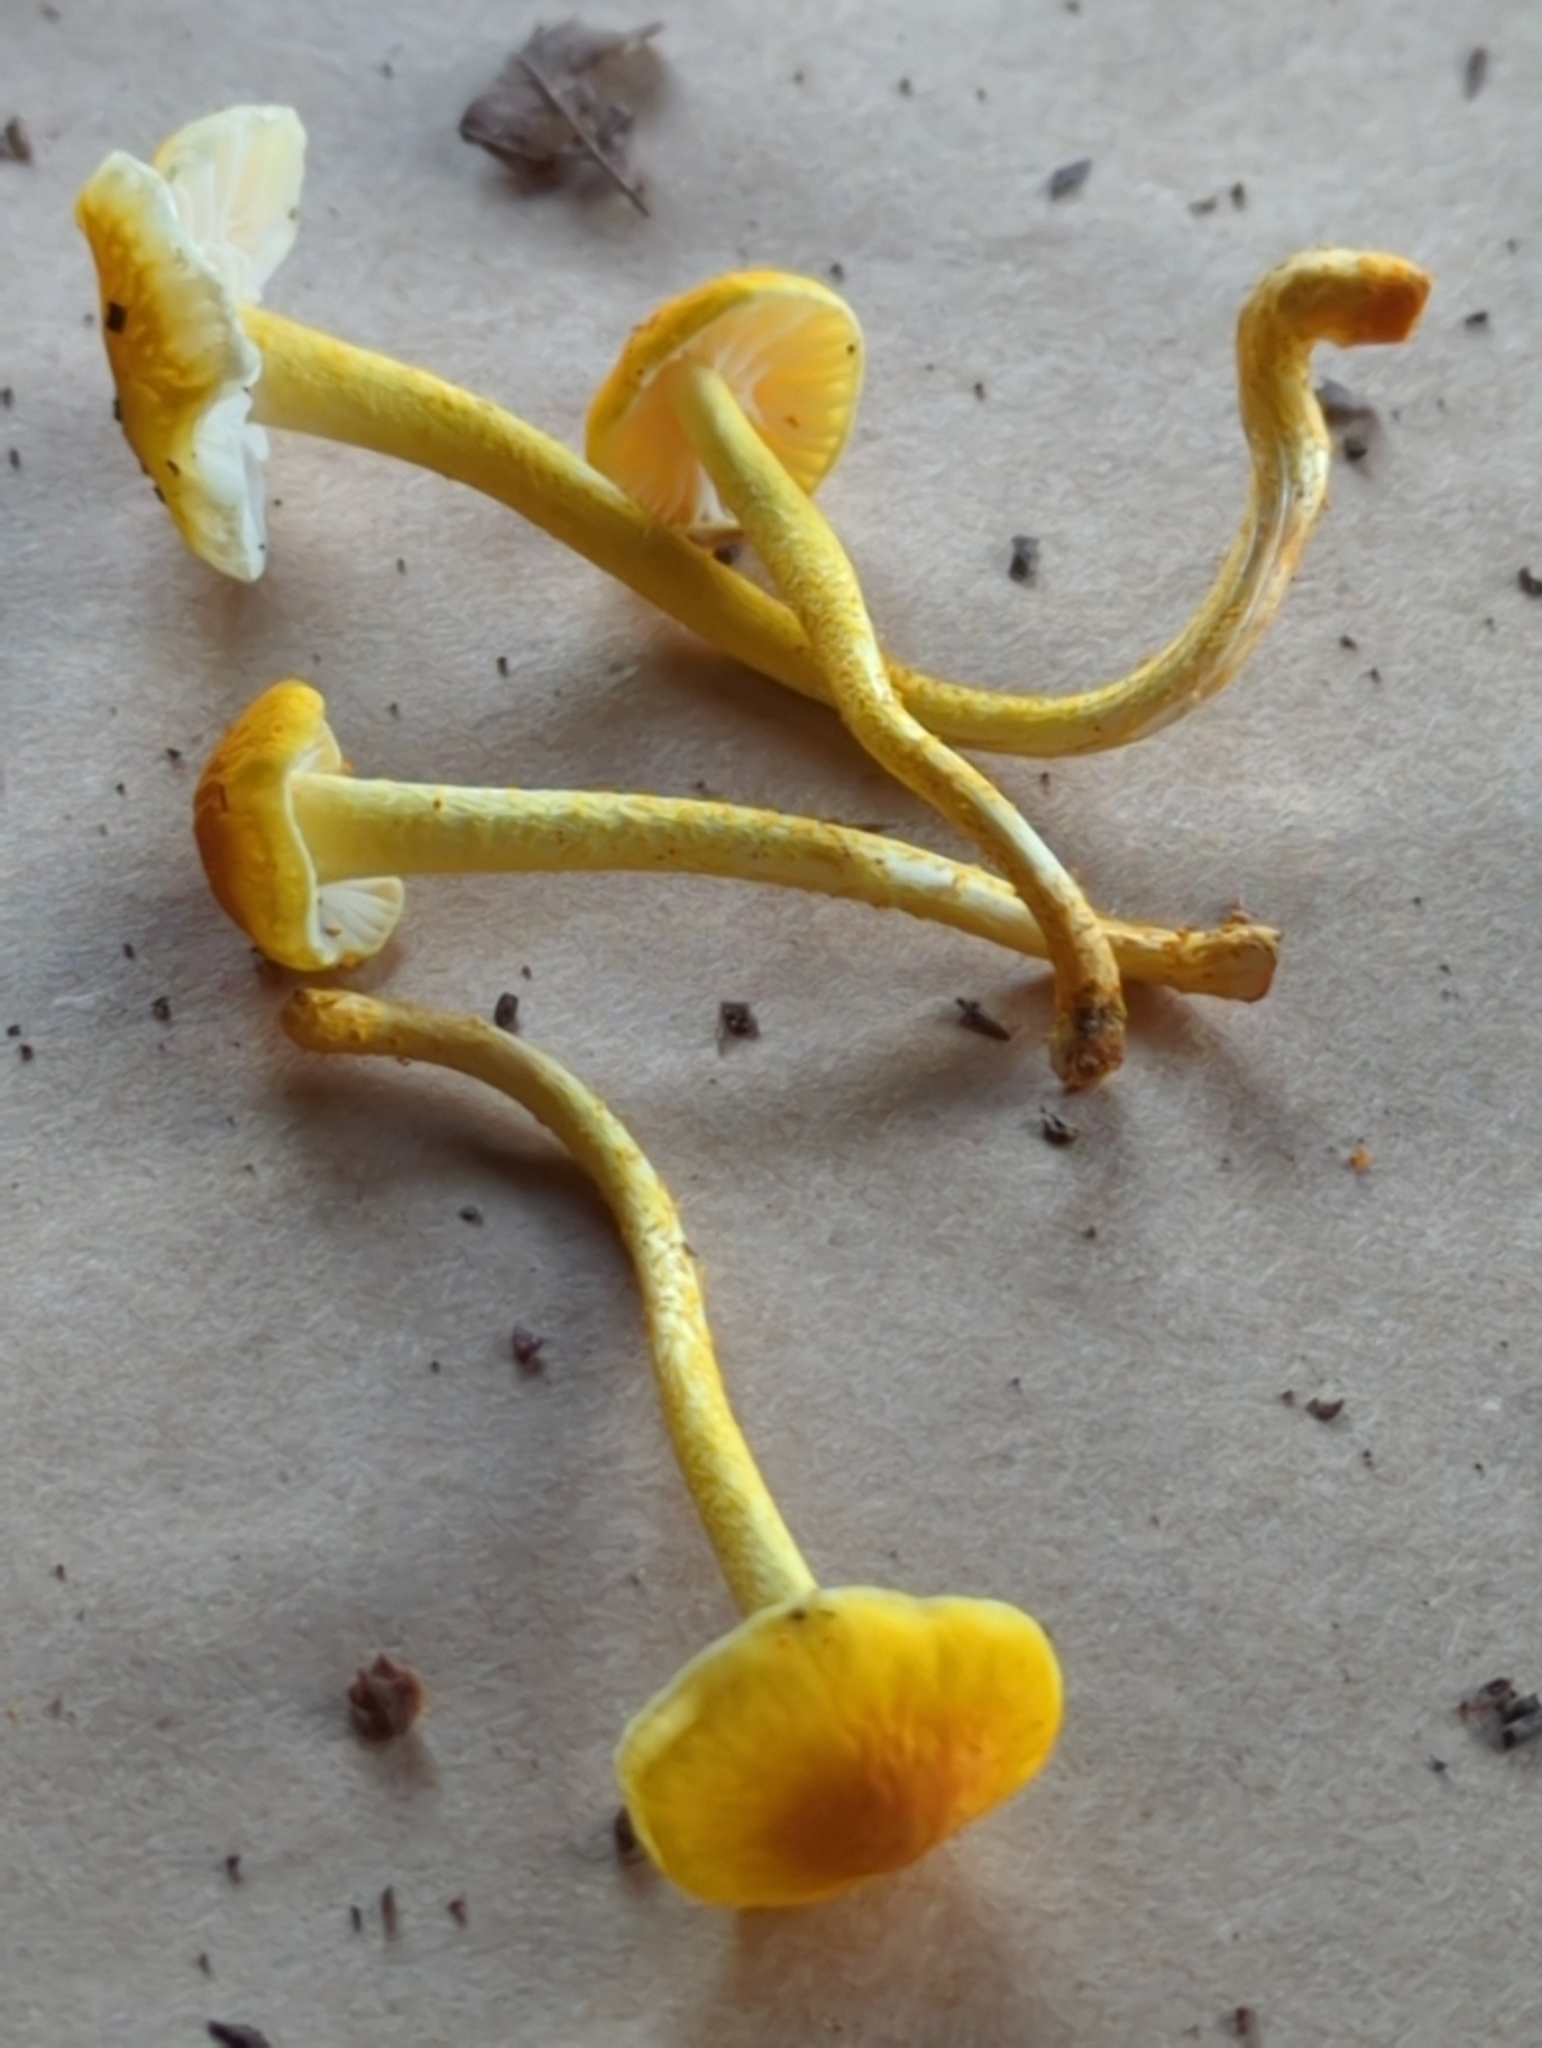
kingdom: Fungi
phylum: Basidiomycota
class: Agaricomycetes
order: Agaricales
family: Physalacriaceae
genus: Cyptotrama
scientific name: Cyptotrama chrysopepla
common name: Golden coincap
